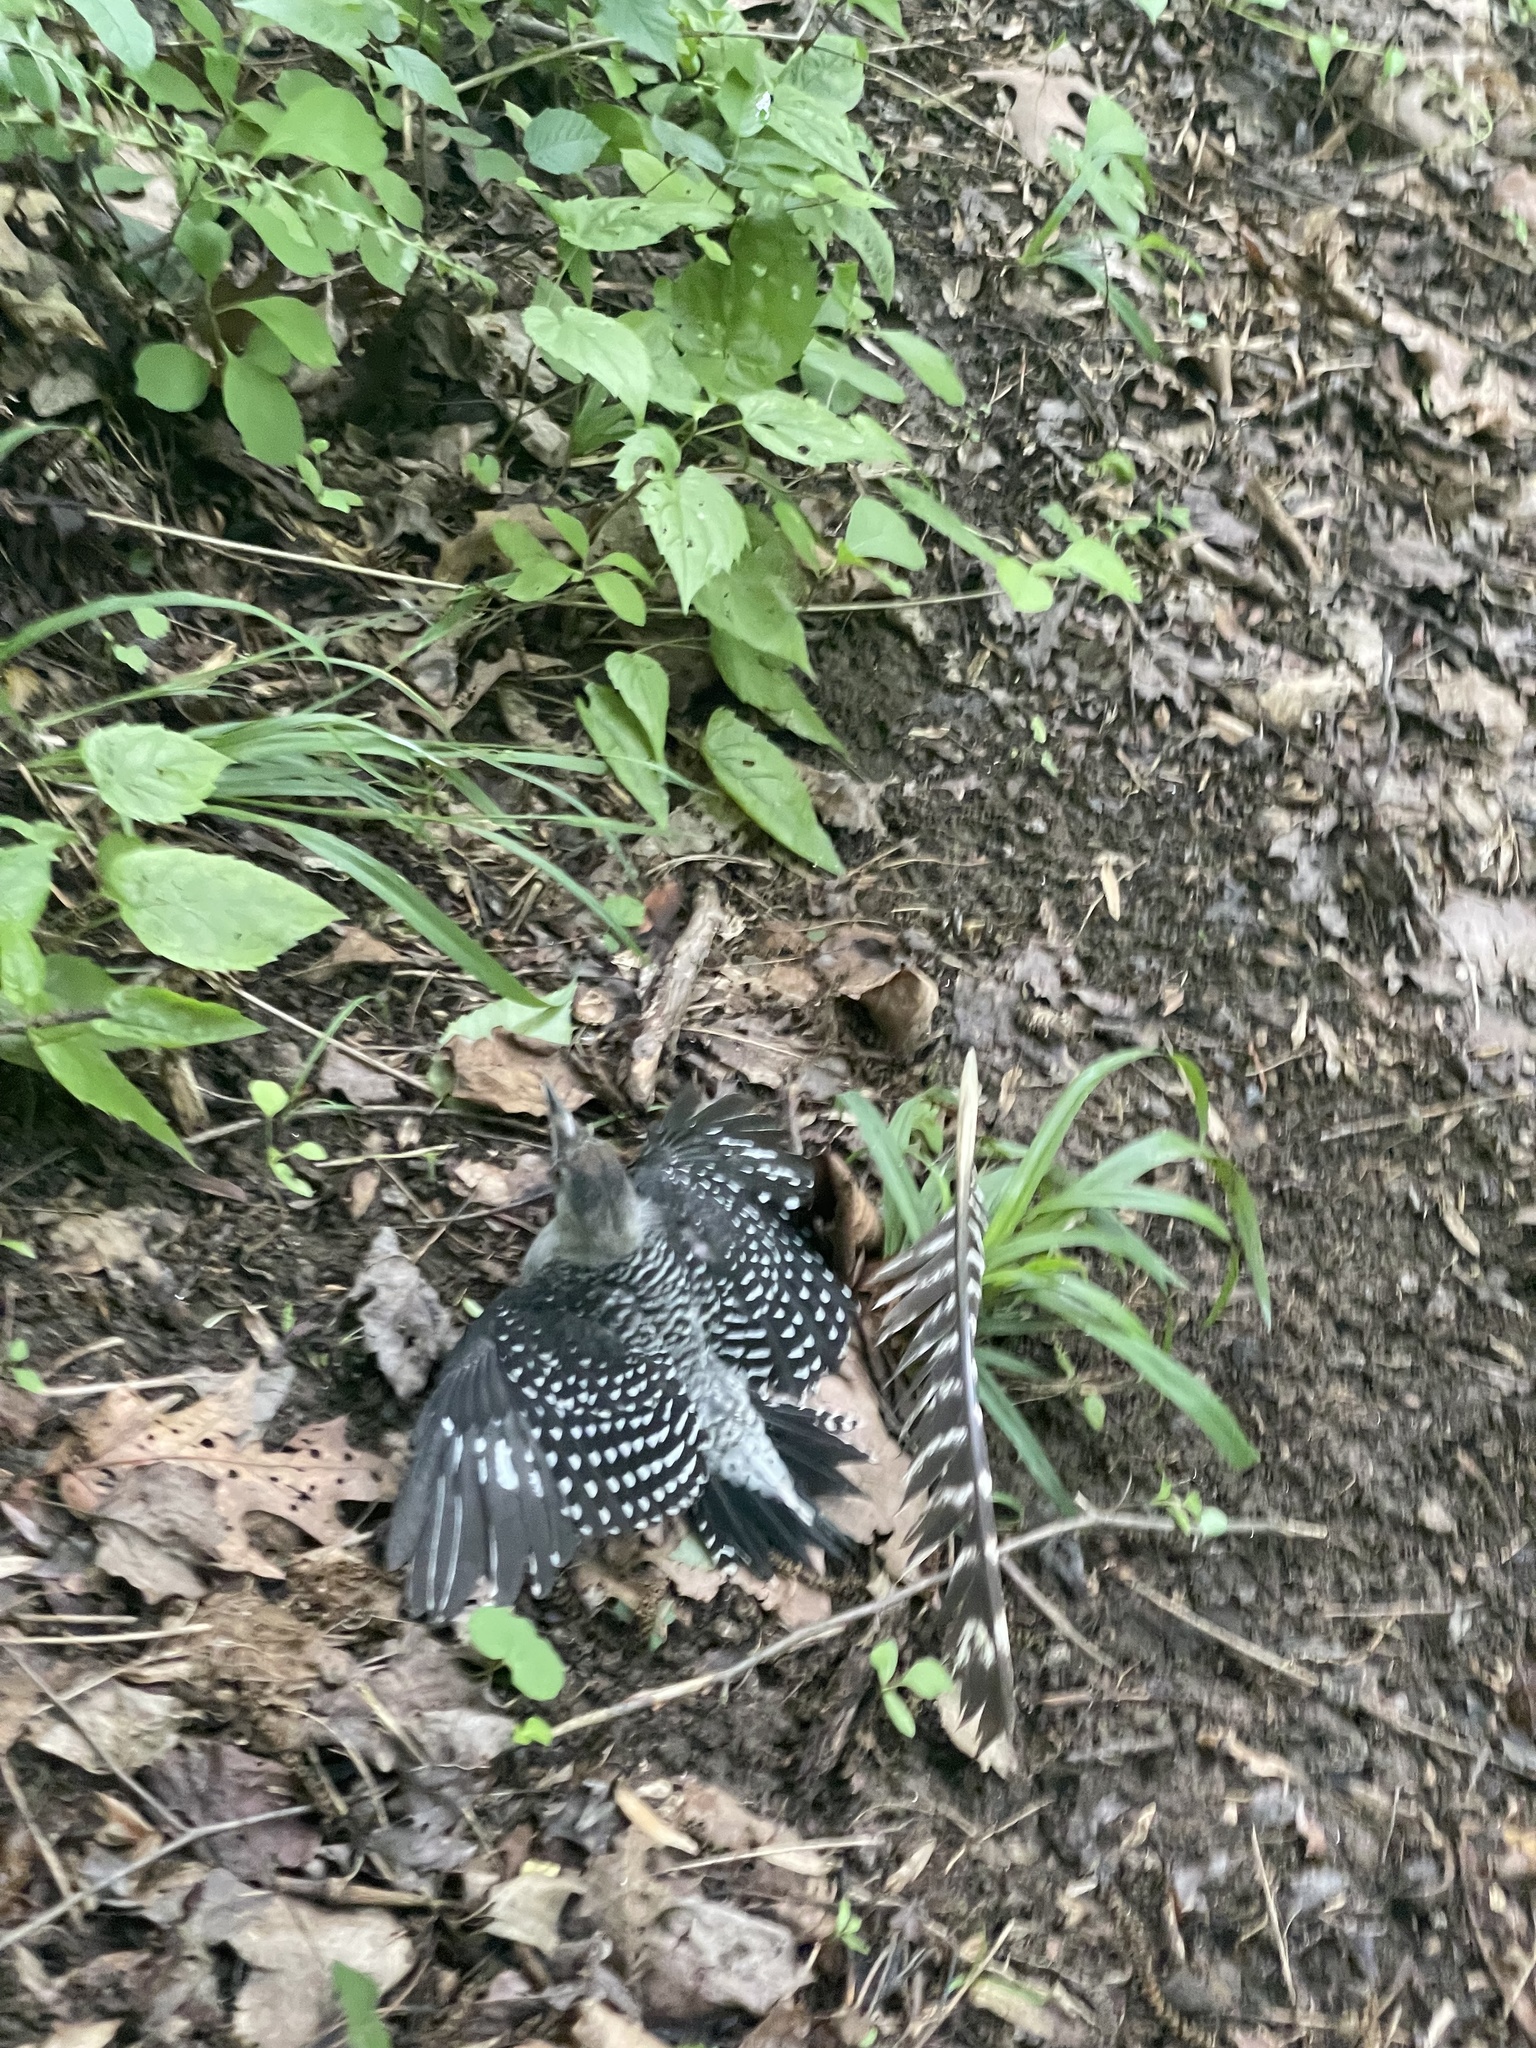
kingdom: Animalia
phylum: Chordata
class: Aves
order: Piciformes
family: Picidae
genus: Melanerpes
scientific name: Melanerpes carolinus
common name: Red-bellied woodpecker
